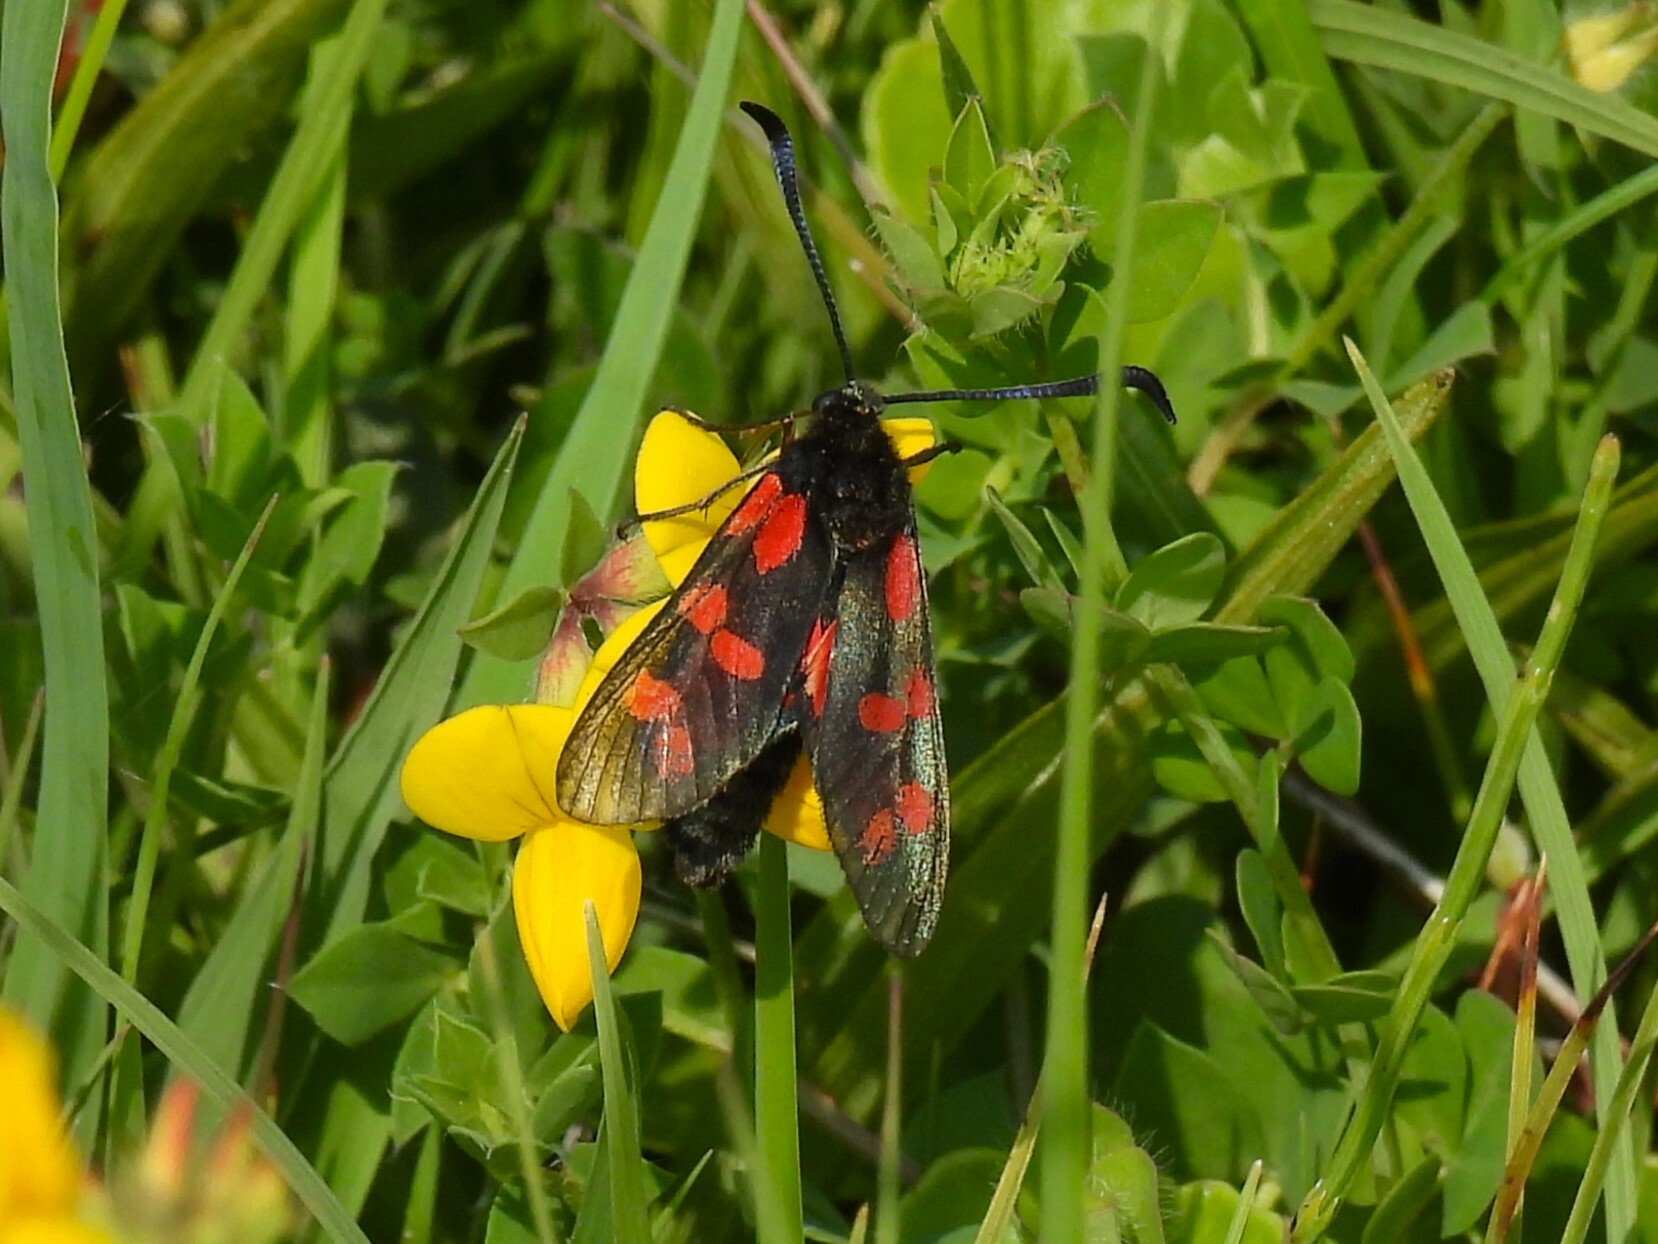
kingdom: Animalia
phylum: Arthropoda
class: Insecta
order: Lepidoptera
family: Zygaenidae
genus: Zygaena
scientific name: Zygaena filipendulae
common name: Six-spot burnet
